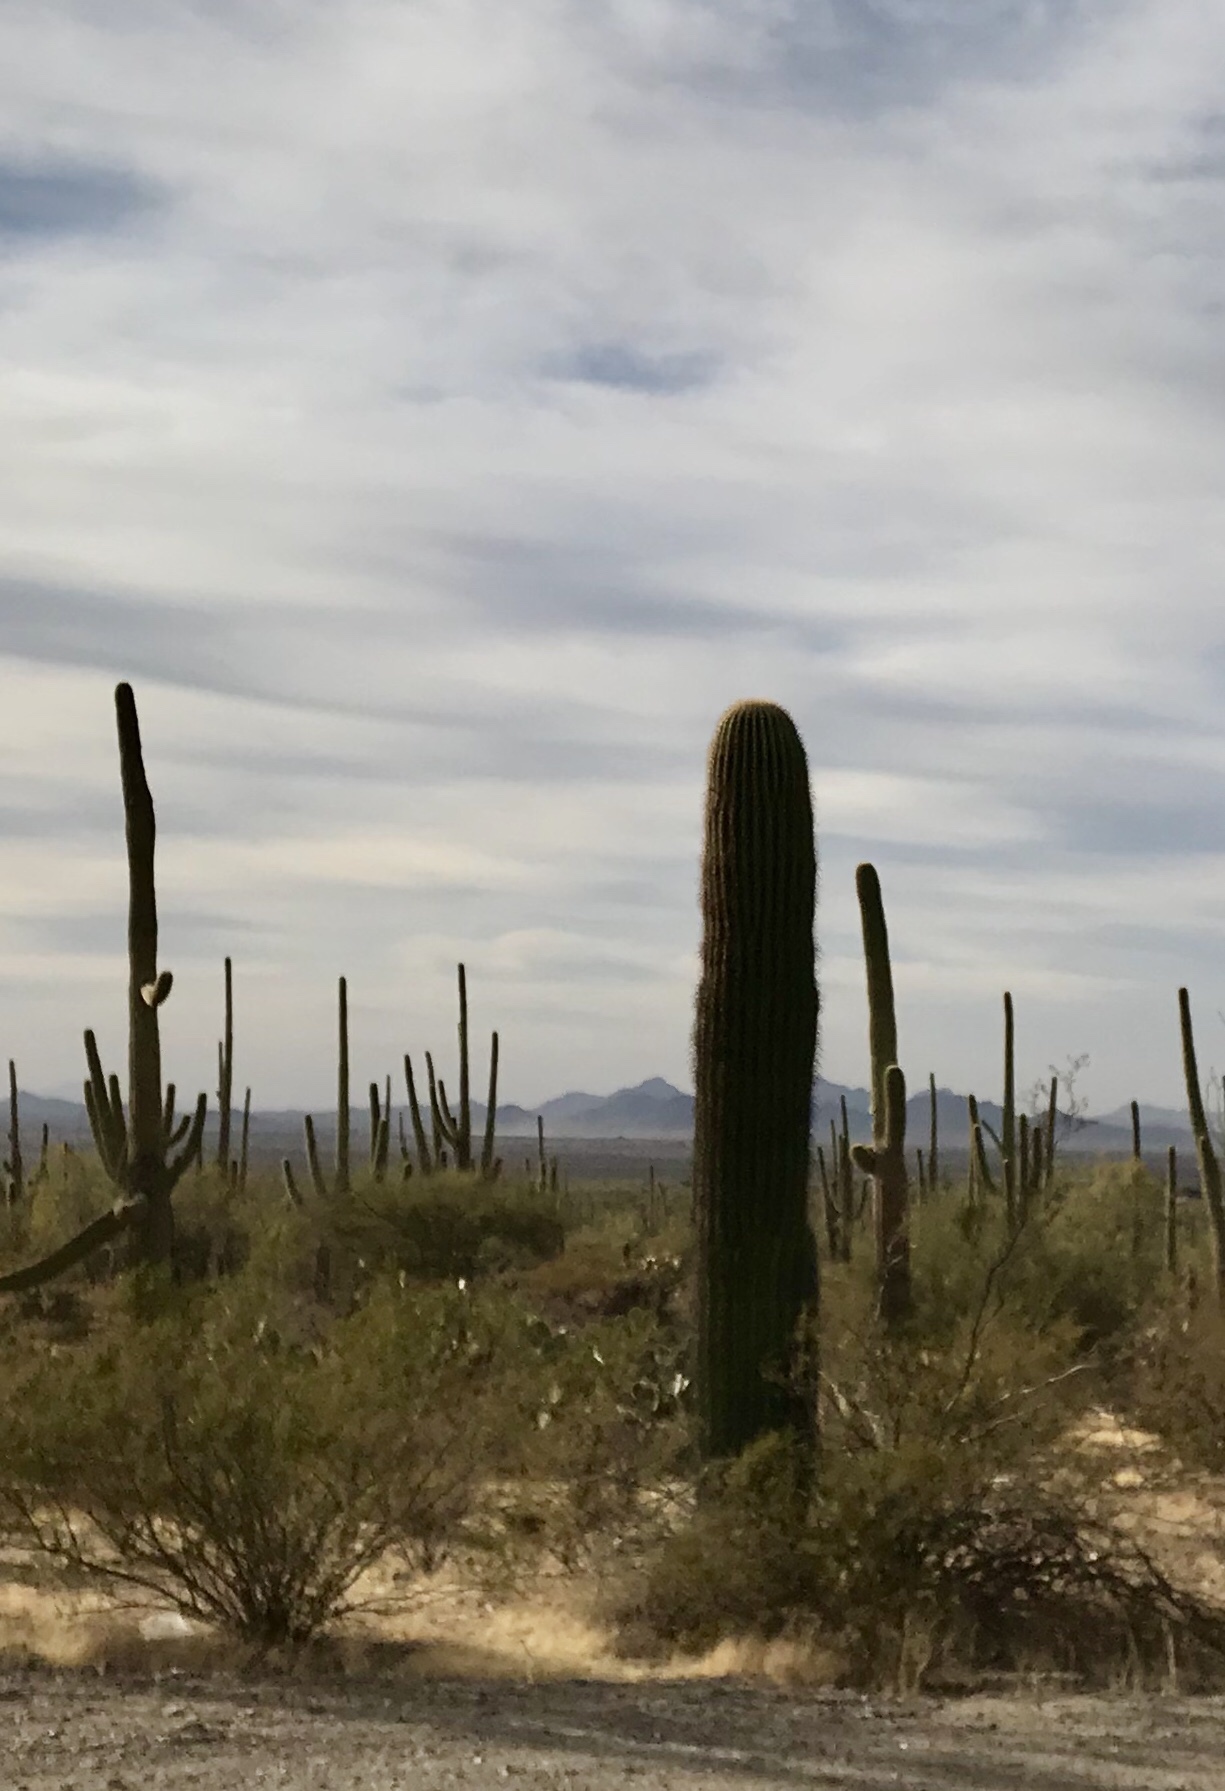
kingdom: Plantae
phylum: Tracheophyta
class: Magnoliopsida
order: Caryophyllales
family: Cactaceae
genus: Carnegiea
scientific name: Carnegiea gigantea
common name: Saguaro
